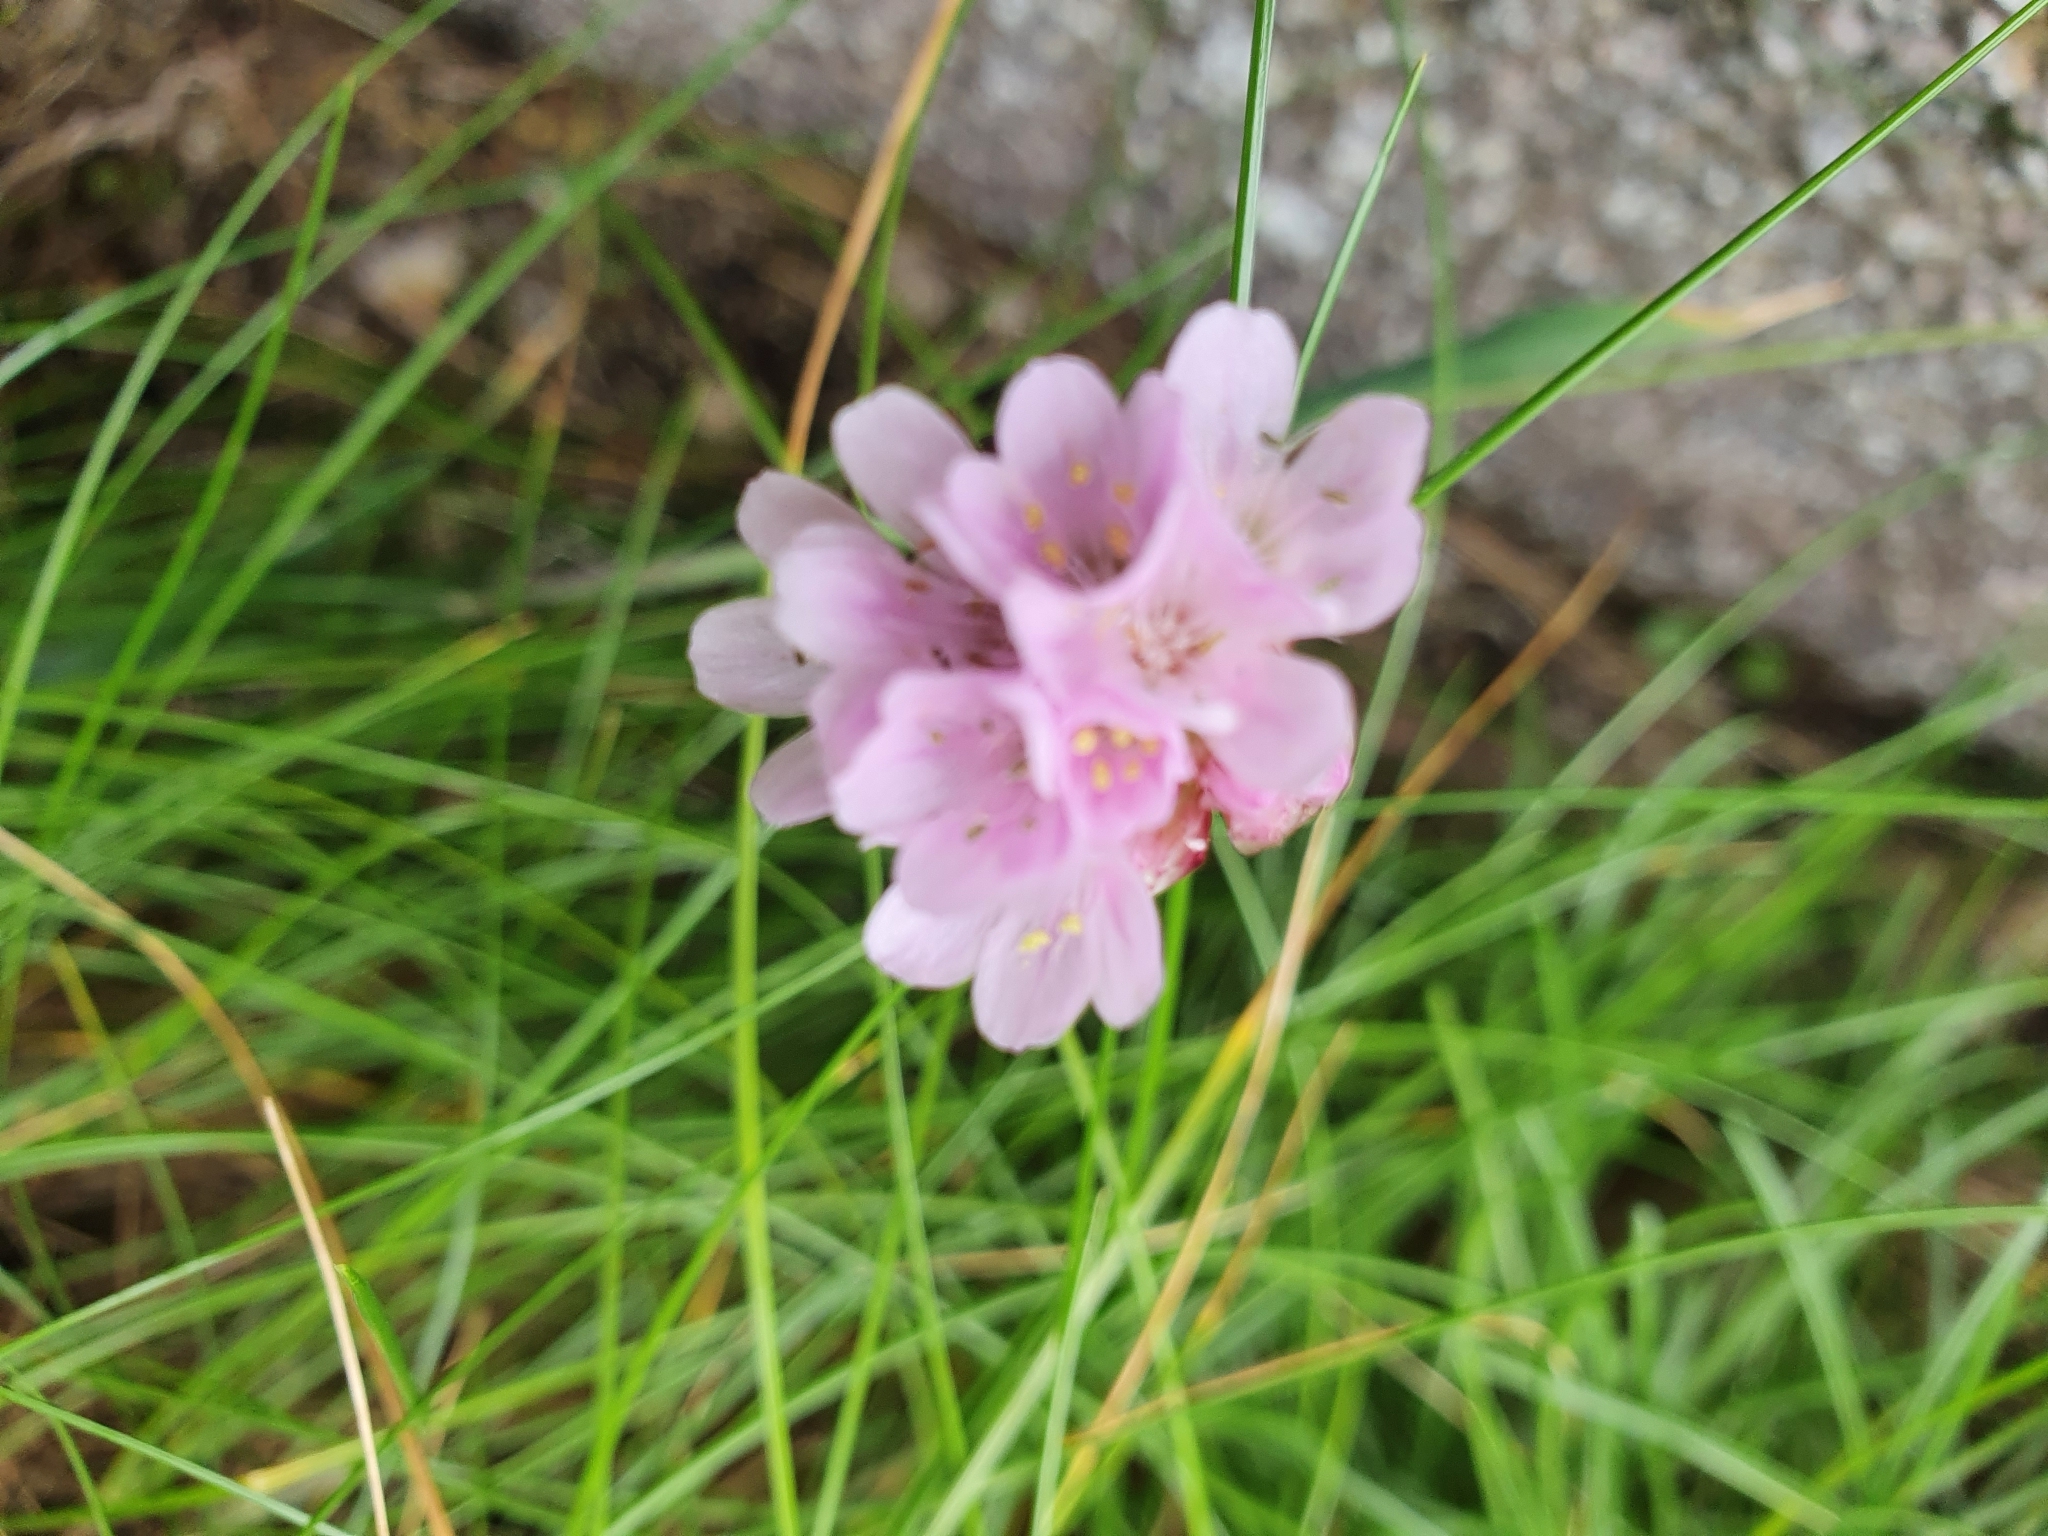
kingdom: Plantae
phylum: Tracheophyta
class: Magnoliopsida
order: Caryophyllales
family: Plumbaginaceae
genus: Armeria
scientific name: Armeria maritima
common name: Thrift
